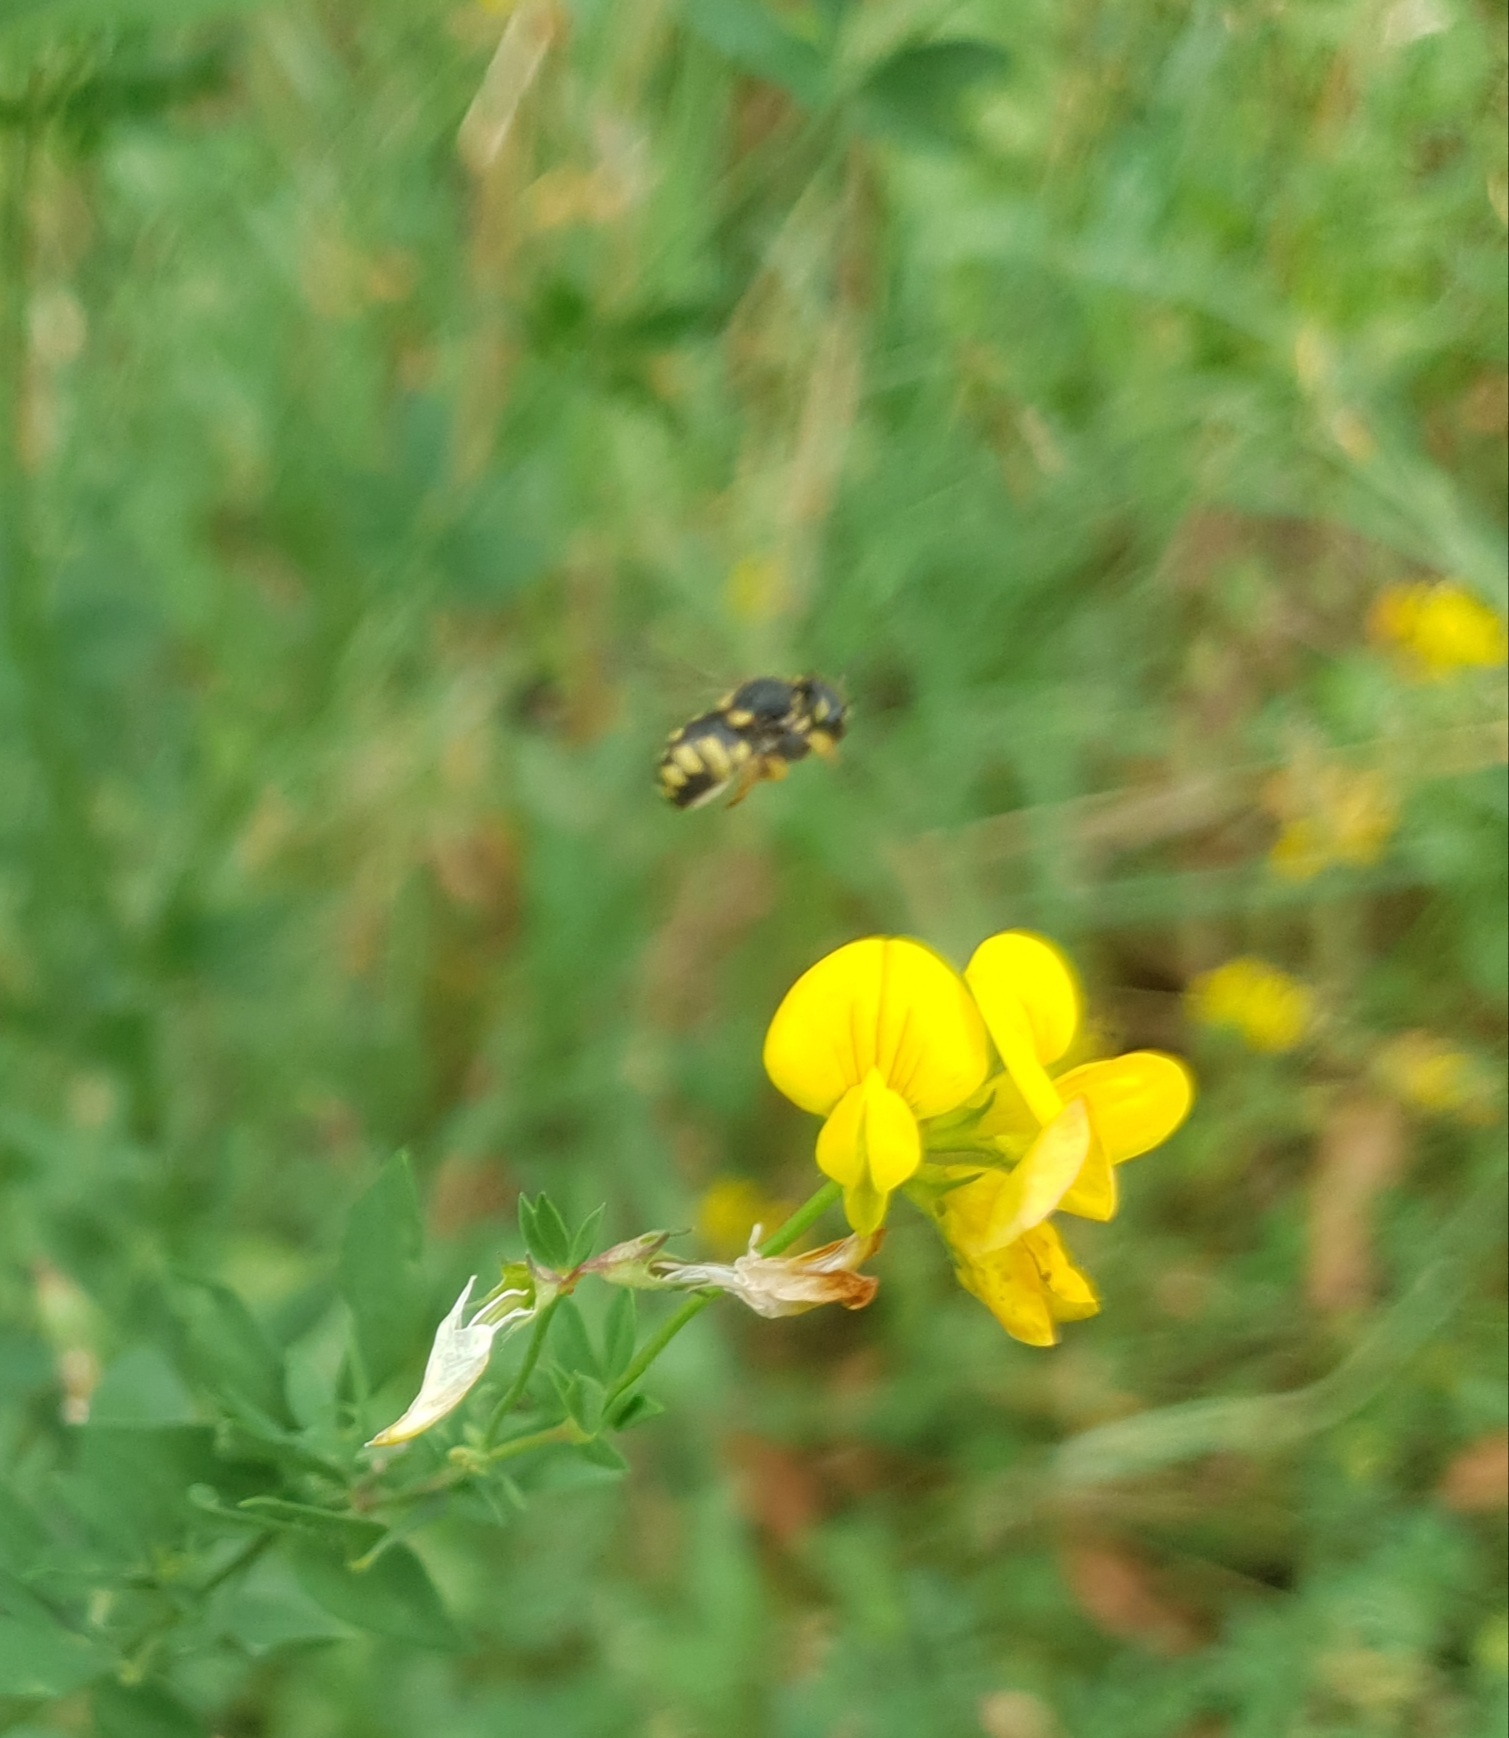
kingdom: Animalia
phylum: Arthropoda
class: Insecta
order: Hymenoptera
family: Megachilidae
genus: Anthidiellum
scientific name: Anthidiellum strigatum
